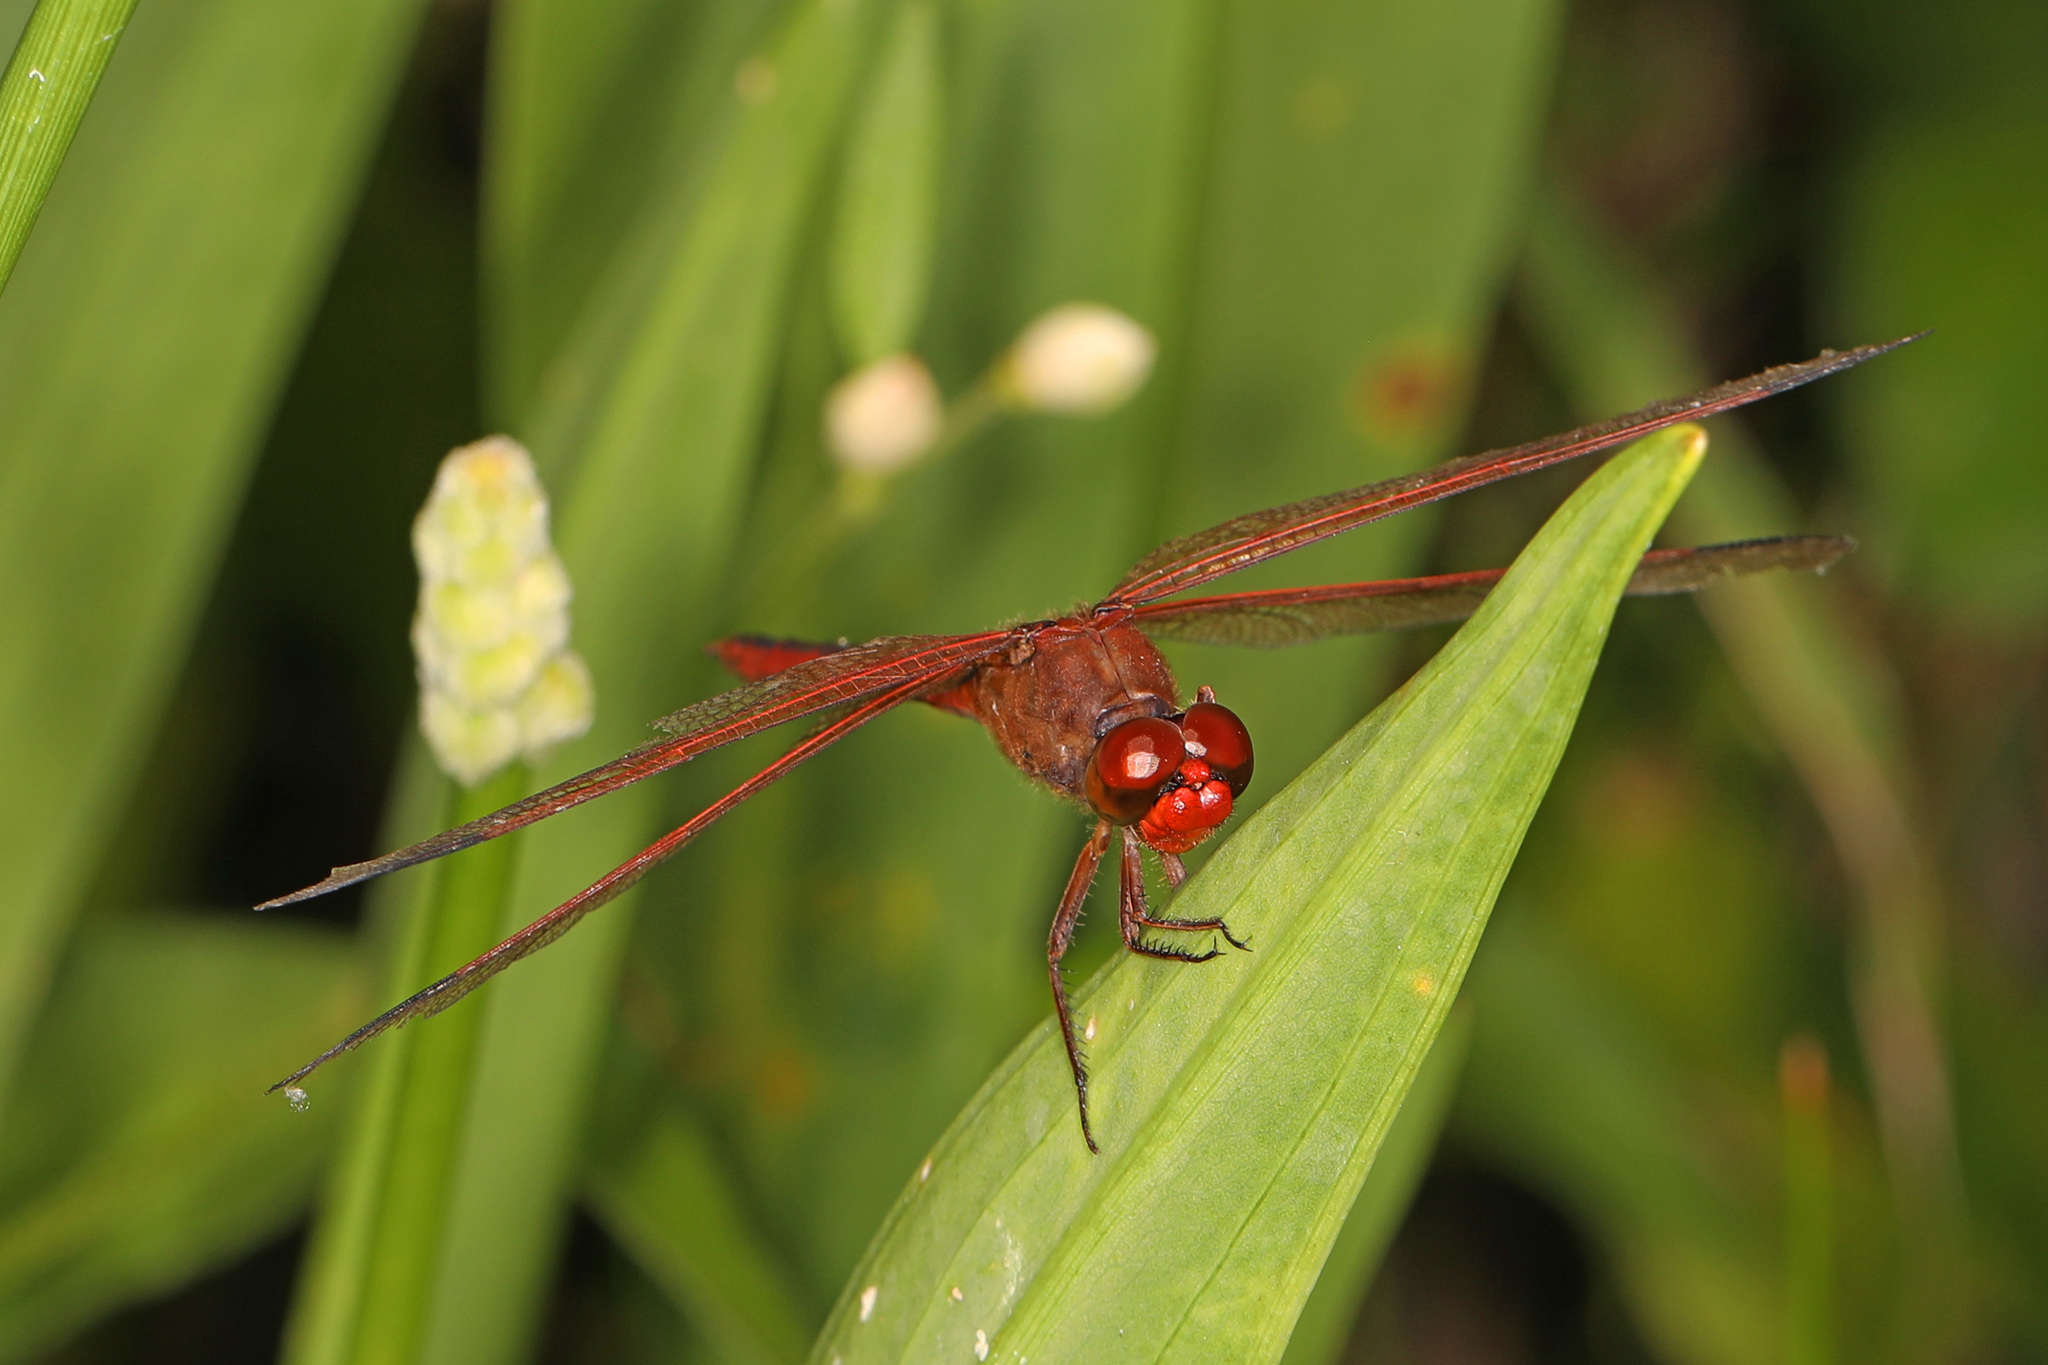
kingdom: Animalia
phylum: Arthropoda
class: Insecta
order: Odonata
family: Libellulidae
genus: Libellula
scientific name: Libellula needhami
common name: Needham's skimmer
